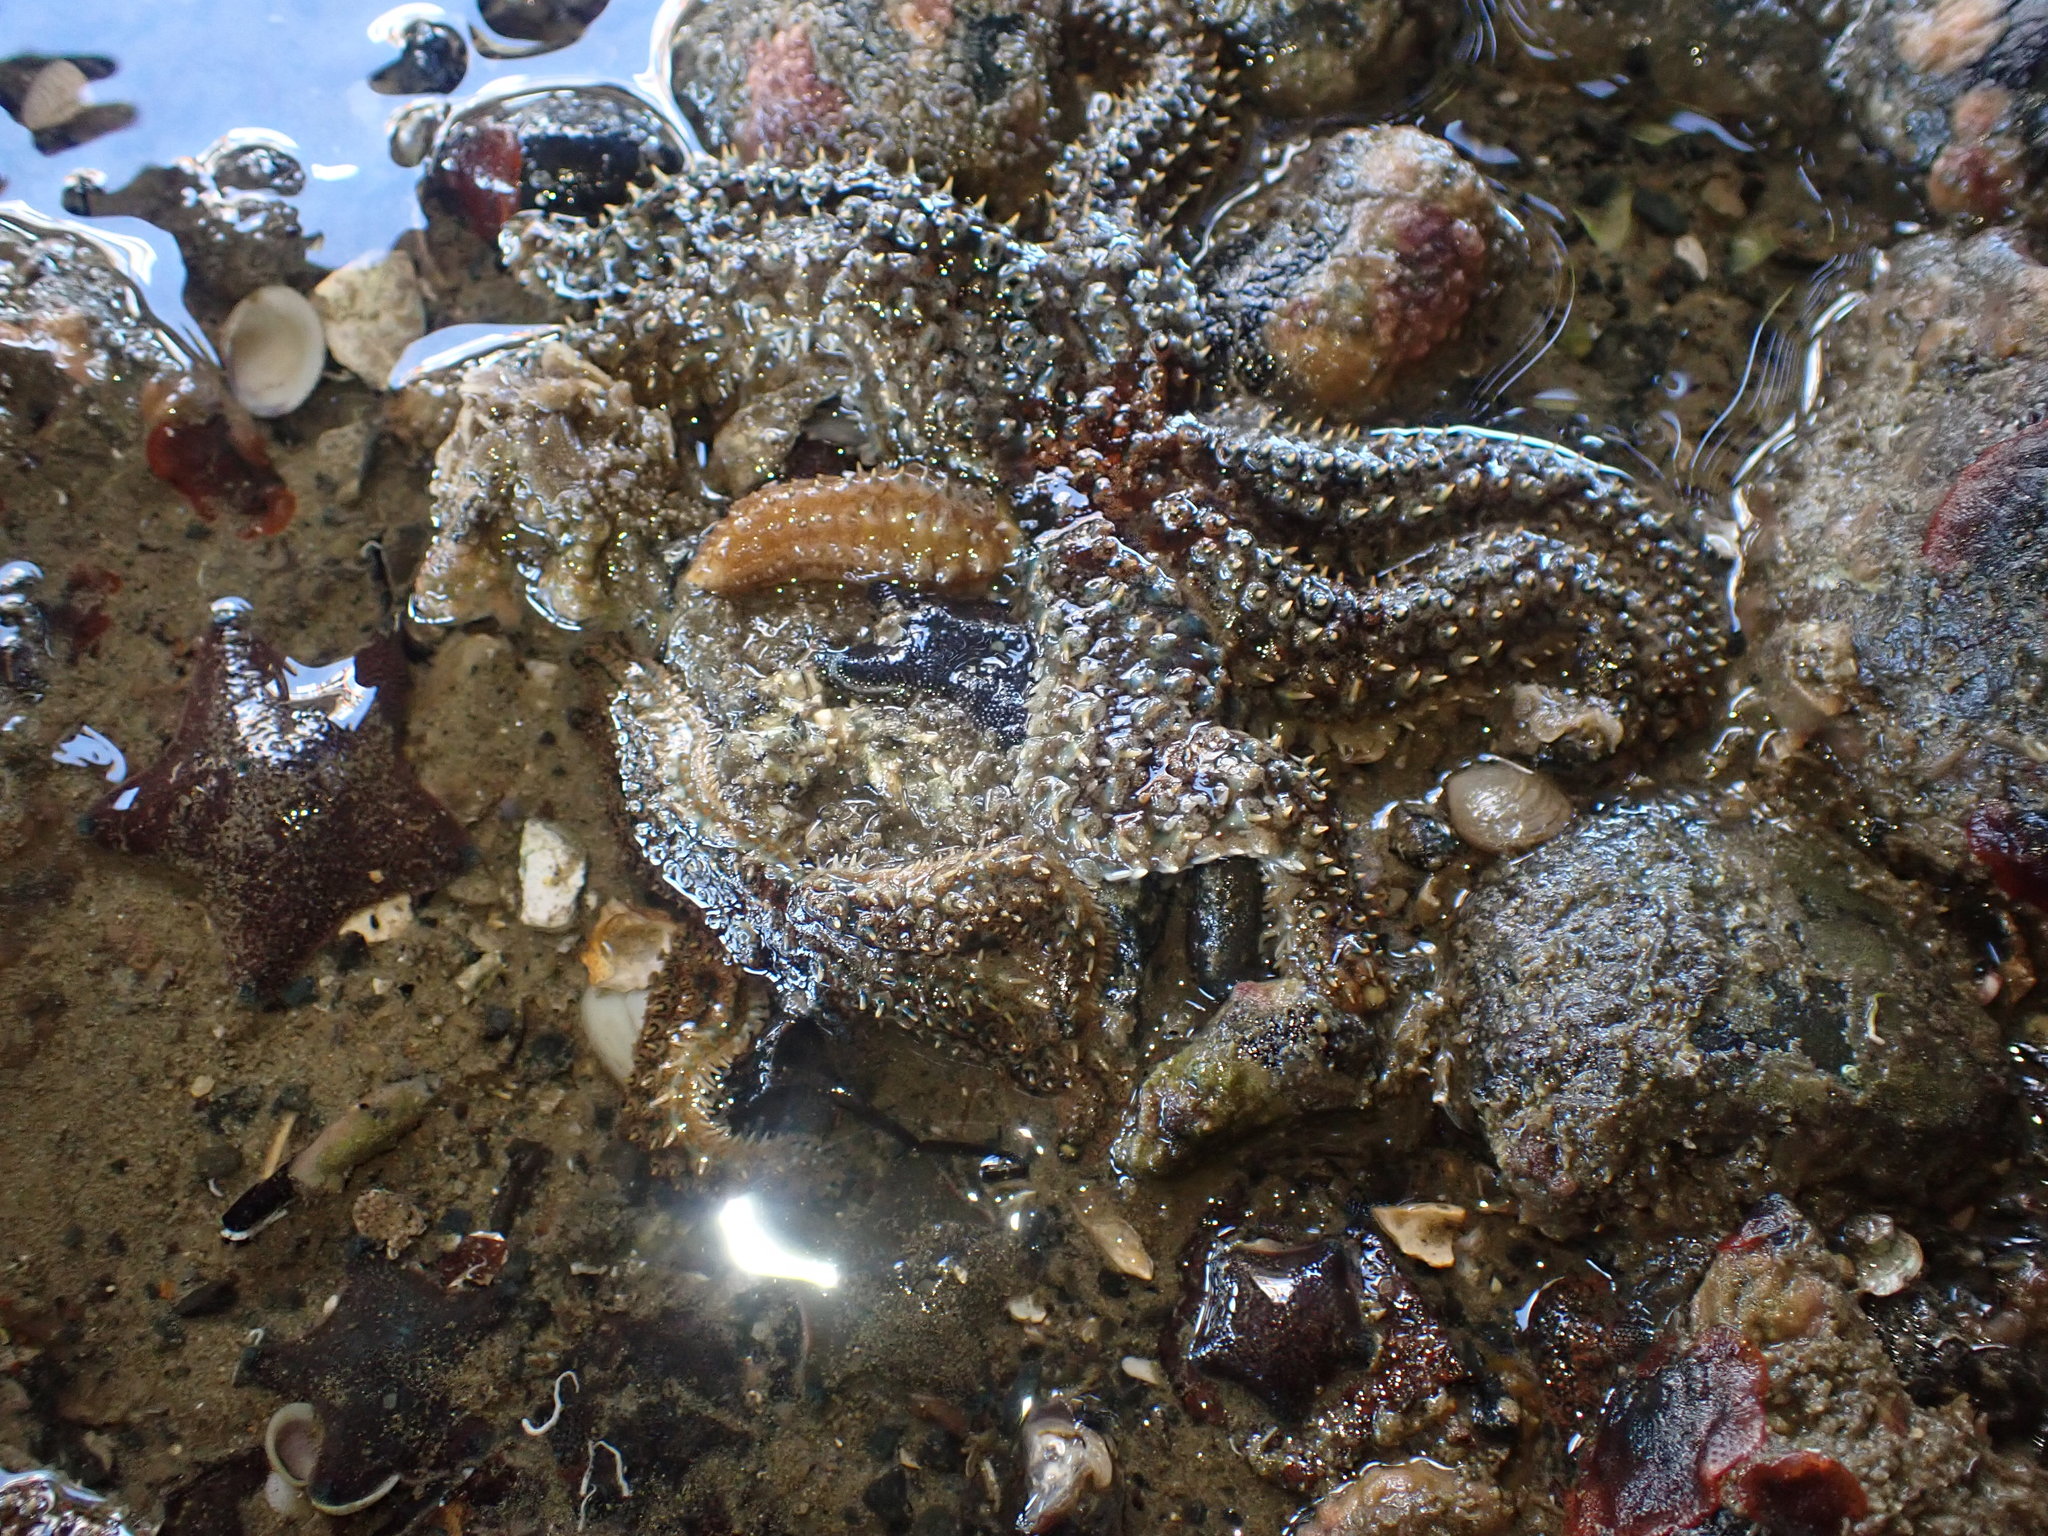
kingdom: Animalia
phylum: Echinodermata
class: Asteroidea
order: Forcipulatida
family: Asteriidae
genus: Coscinasterias
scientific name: Coscinasterias muricata
